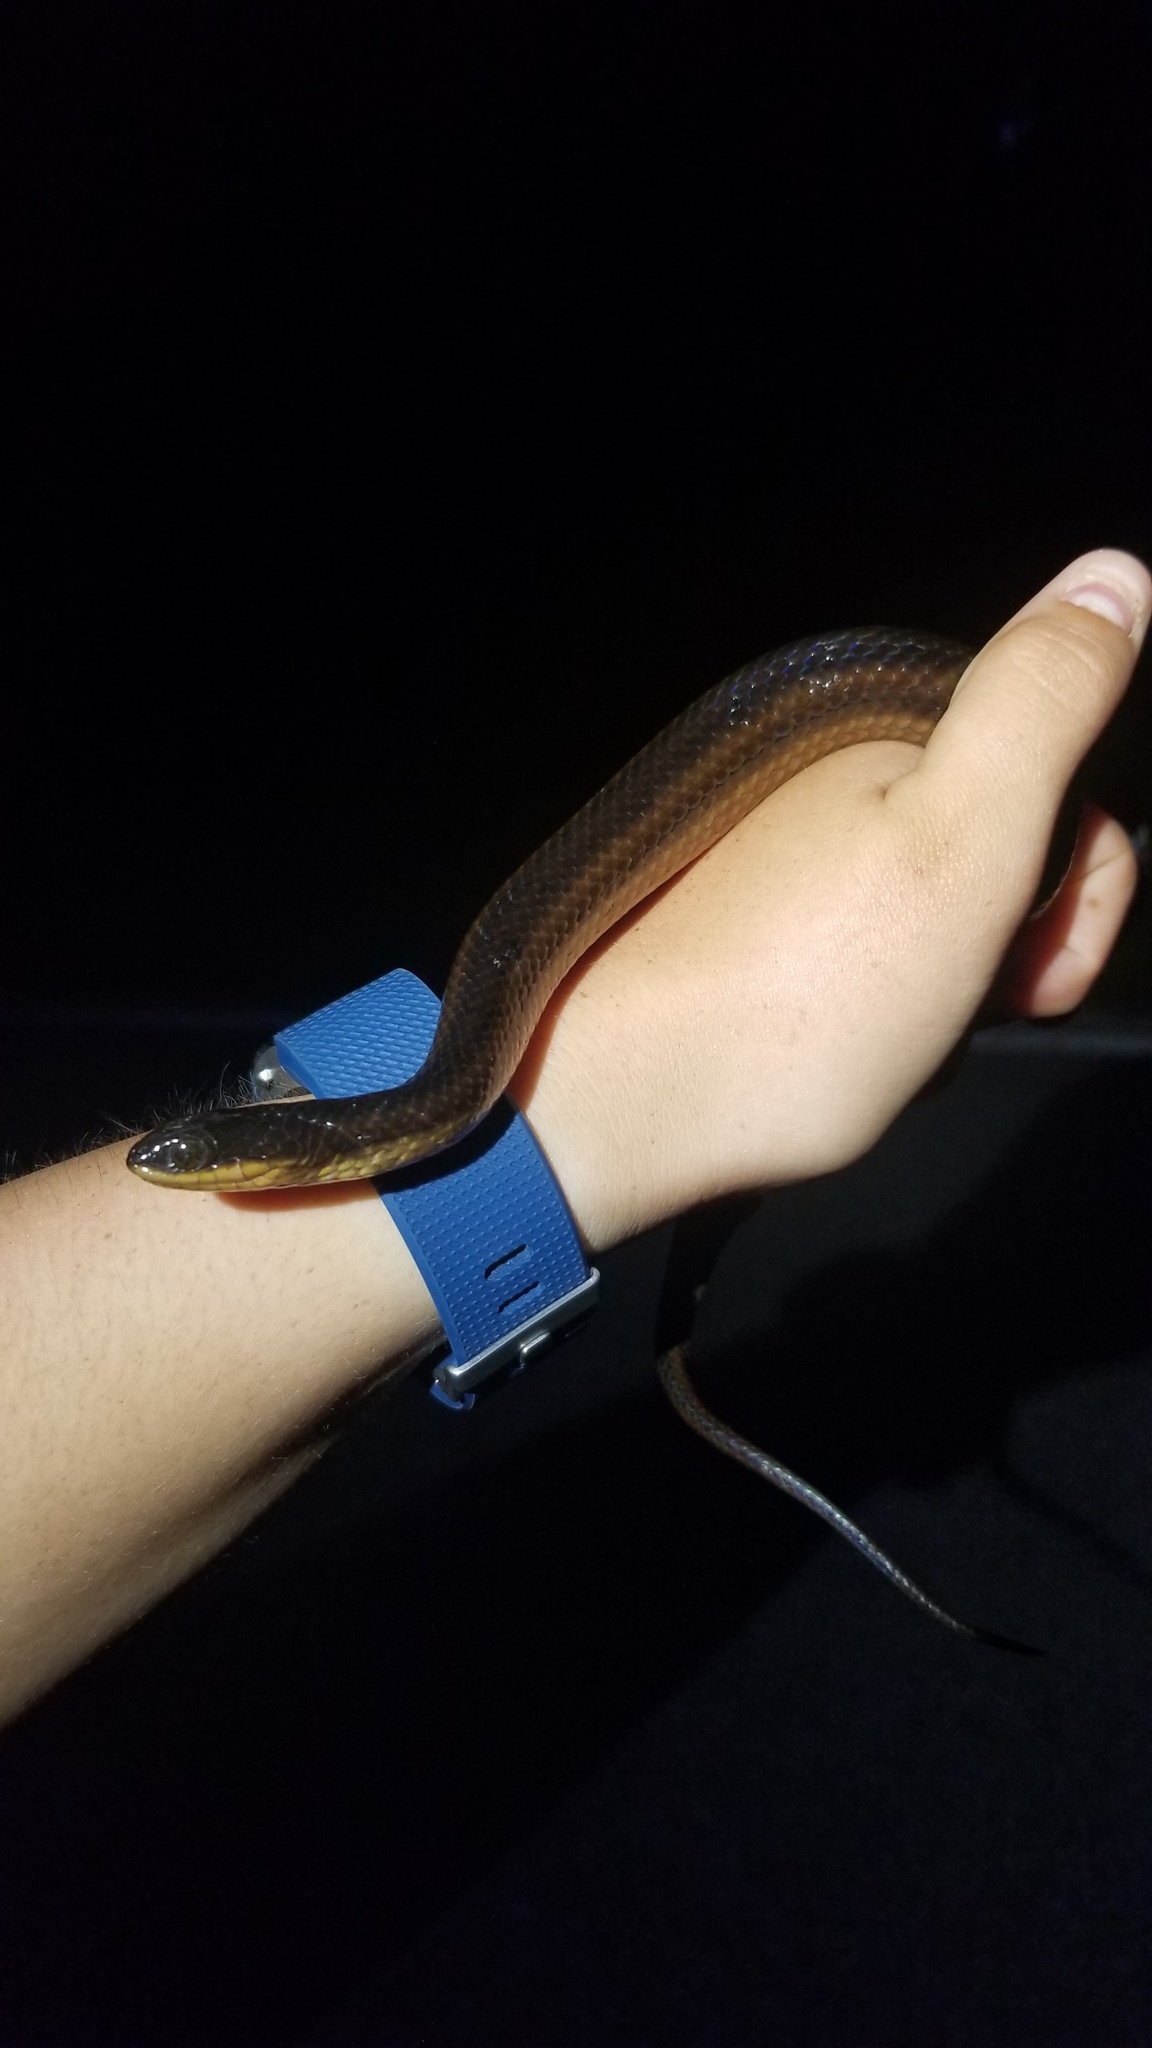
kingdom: Animalia
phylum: Chordata
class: Squamata
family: Colubridae
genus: Liodytes
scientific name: Liodytes alleni
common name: Striped crayfish snake
